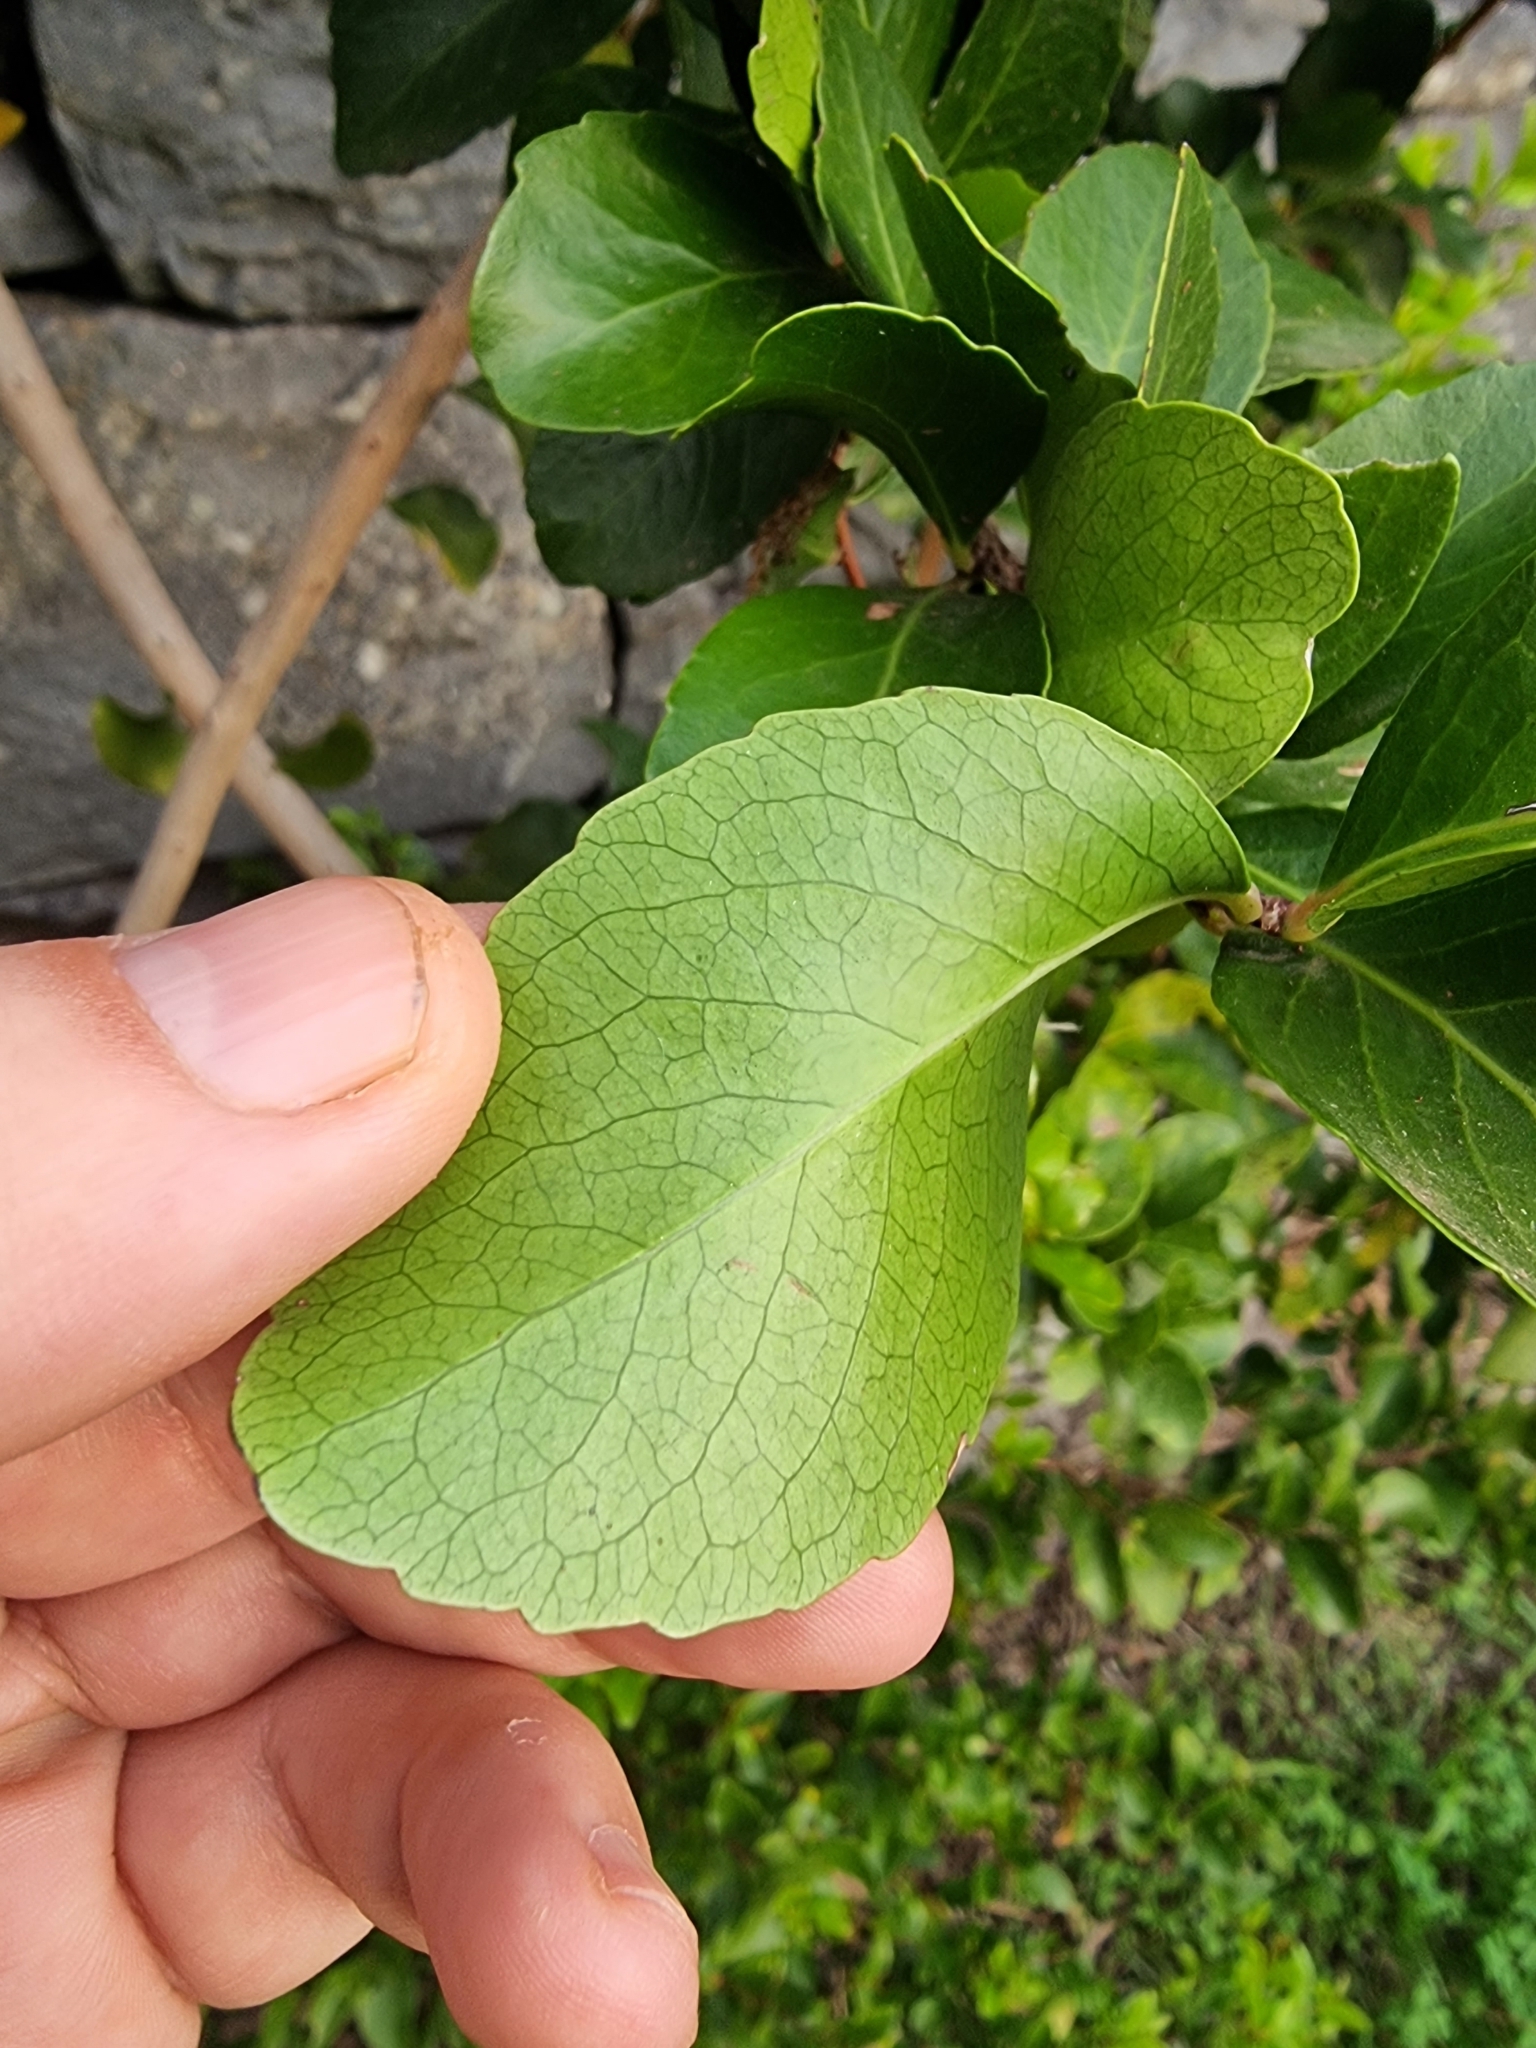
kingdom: Plantae
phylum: Tracheophyta
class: Magnoliopsida
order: Celastrales
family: Celastraceae
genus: Gymnosporia
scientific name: Gymnosporia dryandri
